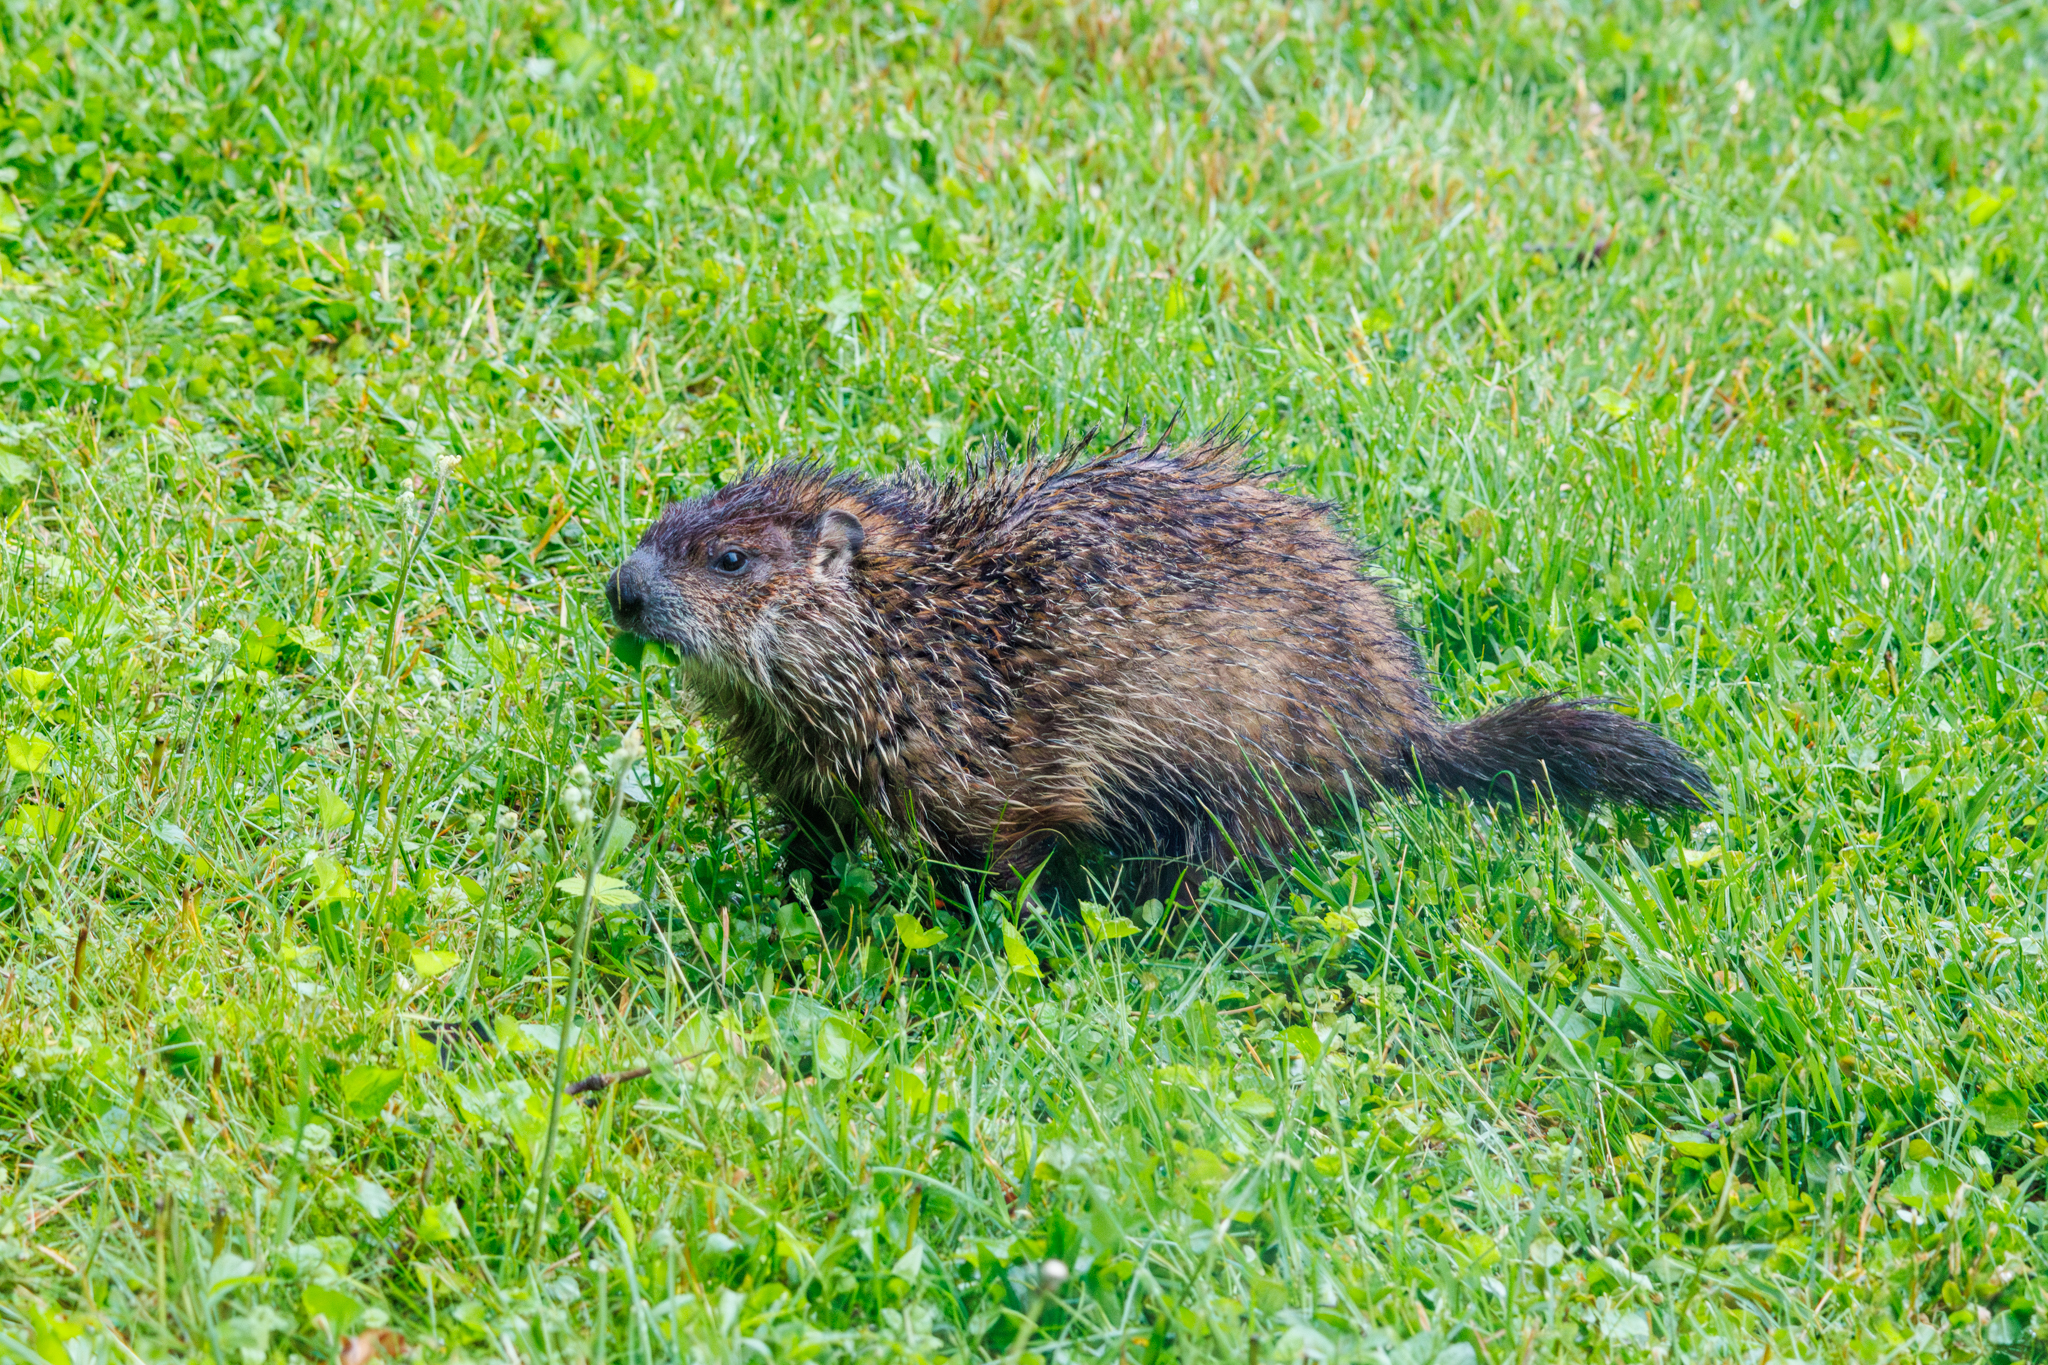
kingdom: Animalia
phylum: Chordata
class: Mammalia
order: Rodentia
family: Sciuridae
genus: Marmota
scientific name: Marmota monax
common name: Groundhog
